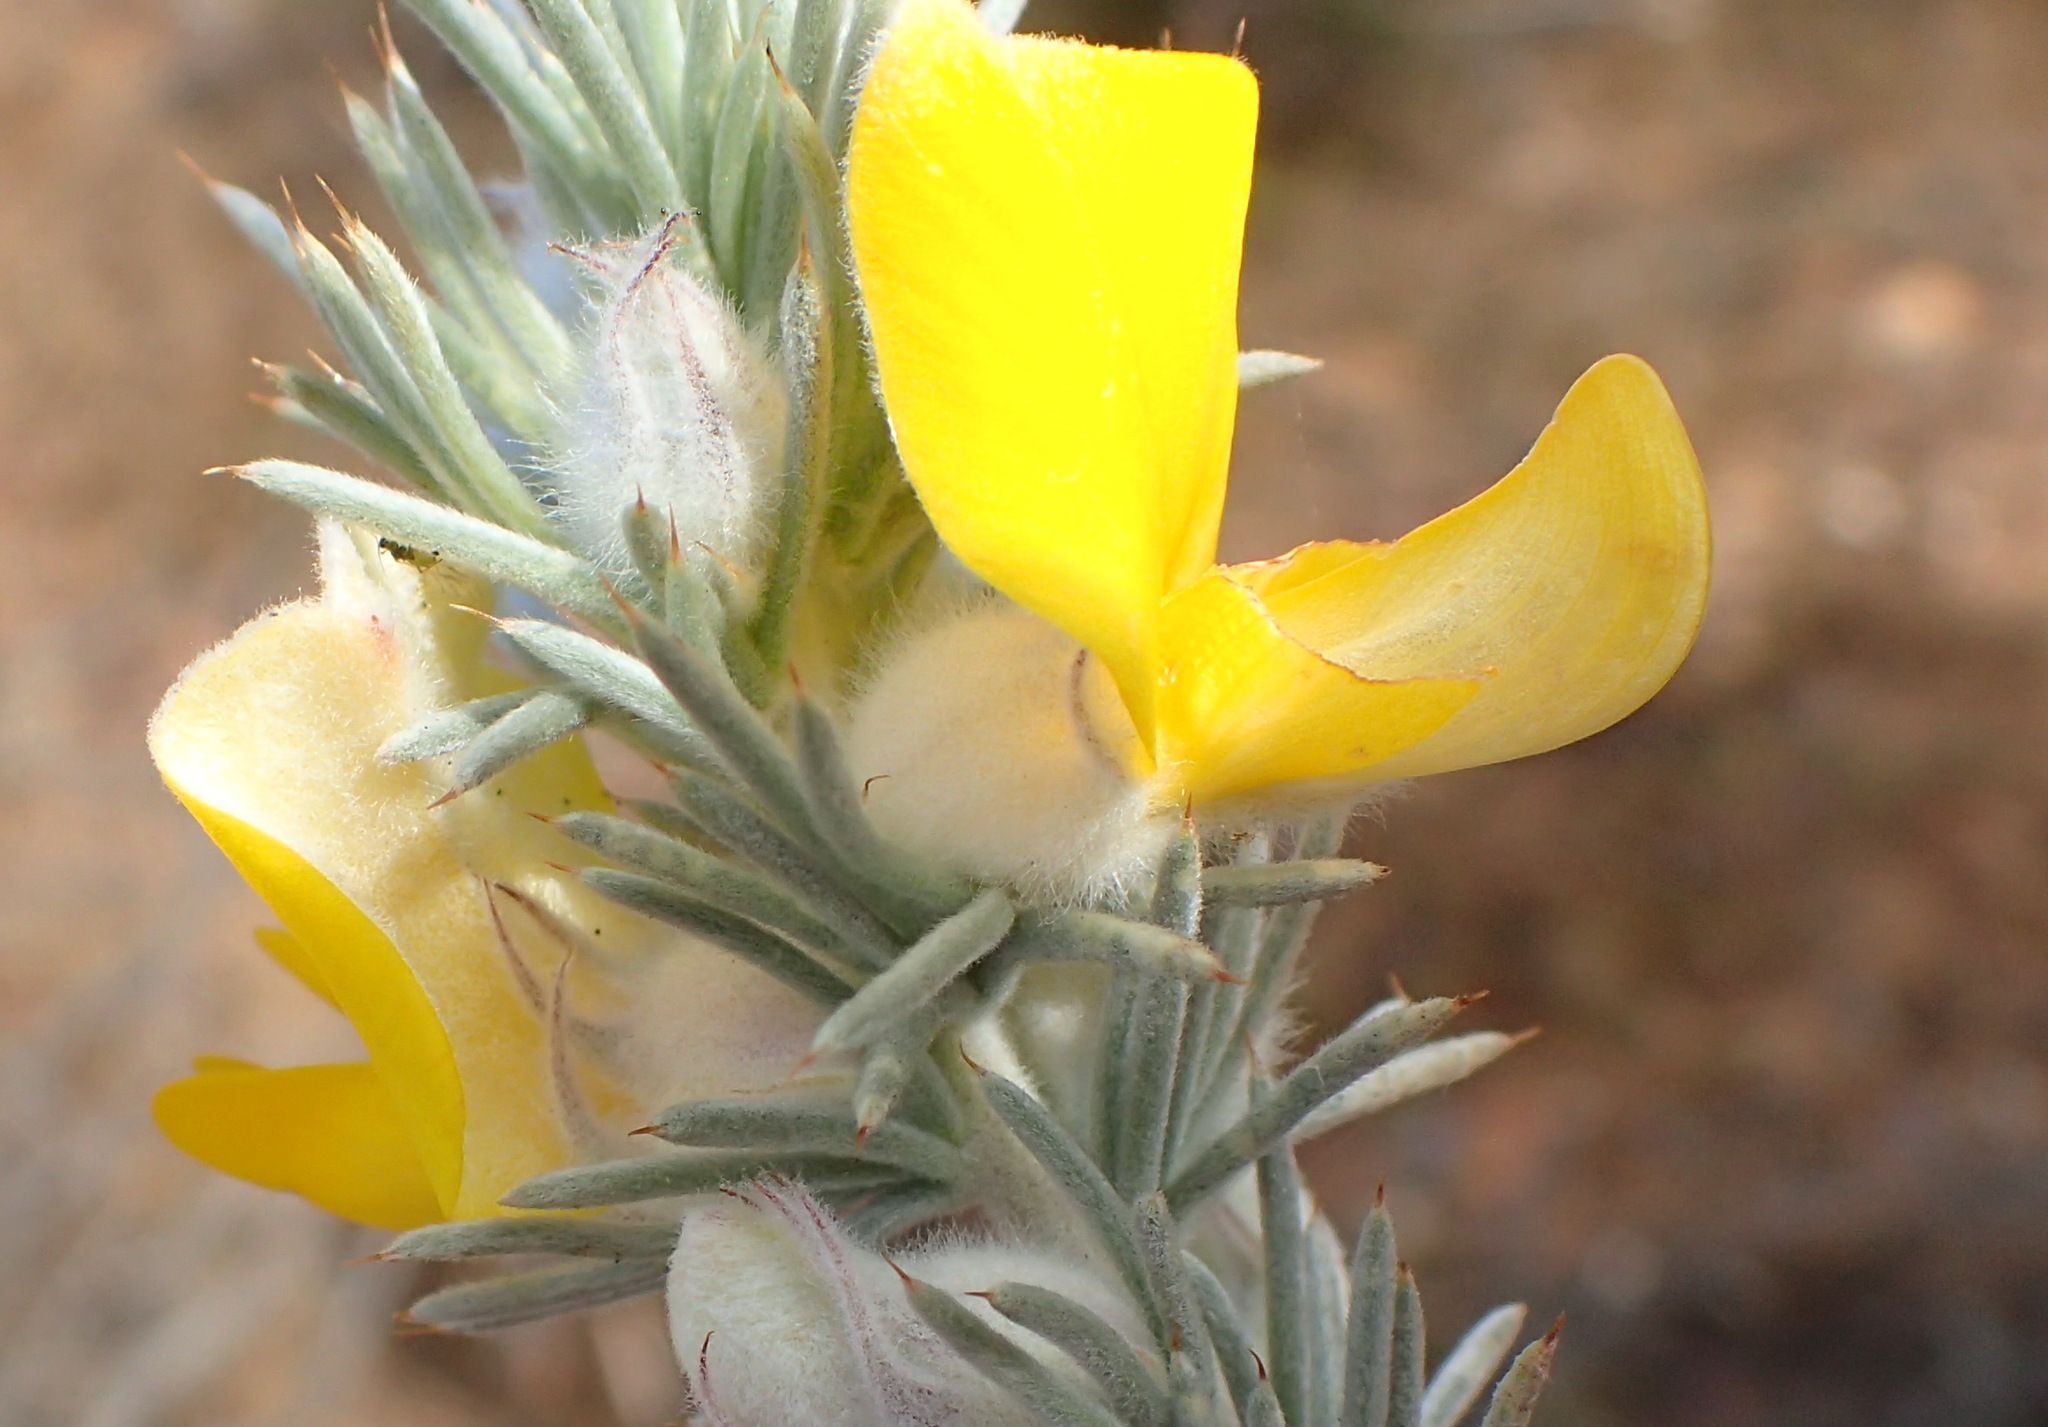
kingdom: Plantae
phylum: Tracheophyta
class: Magnoliopsida
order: Fabales
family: Fabaceae
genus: Aspalathus
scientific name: Aspalathus hystrix
